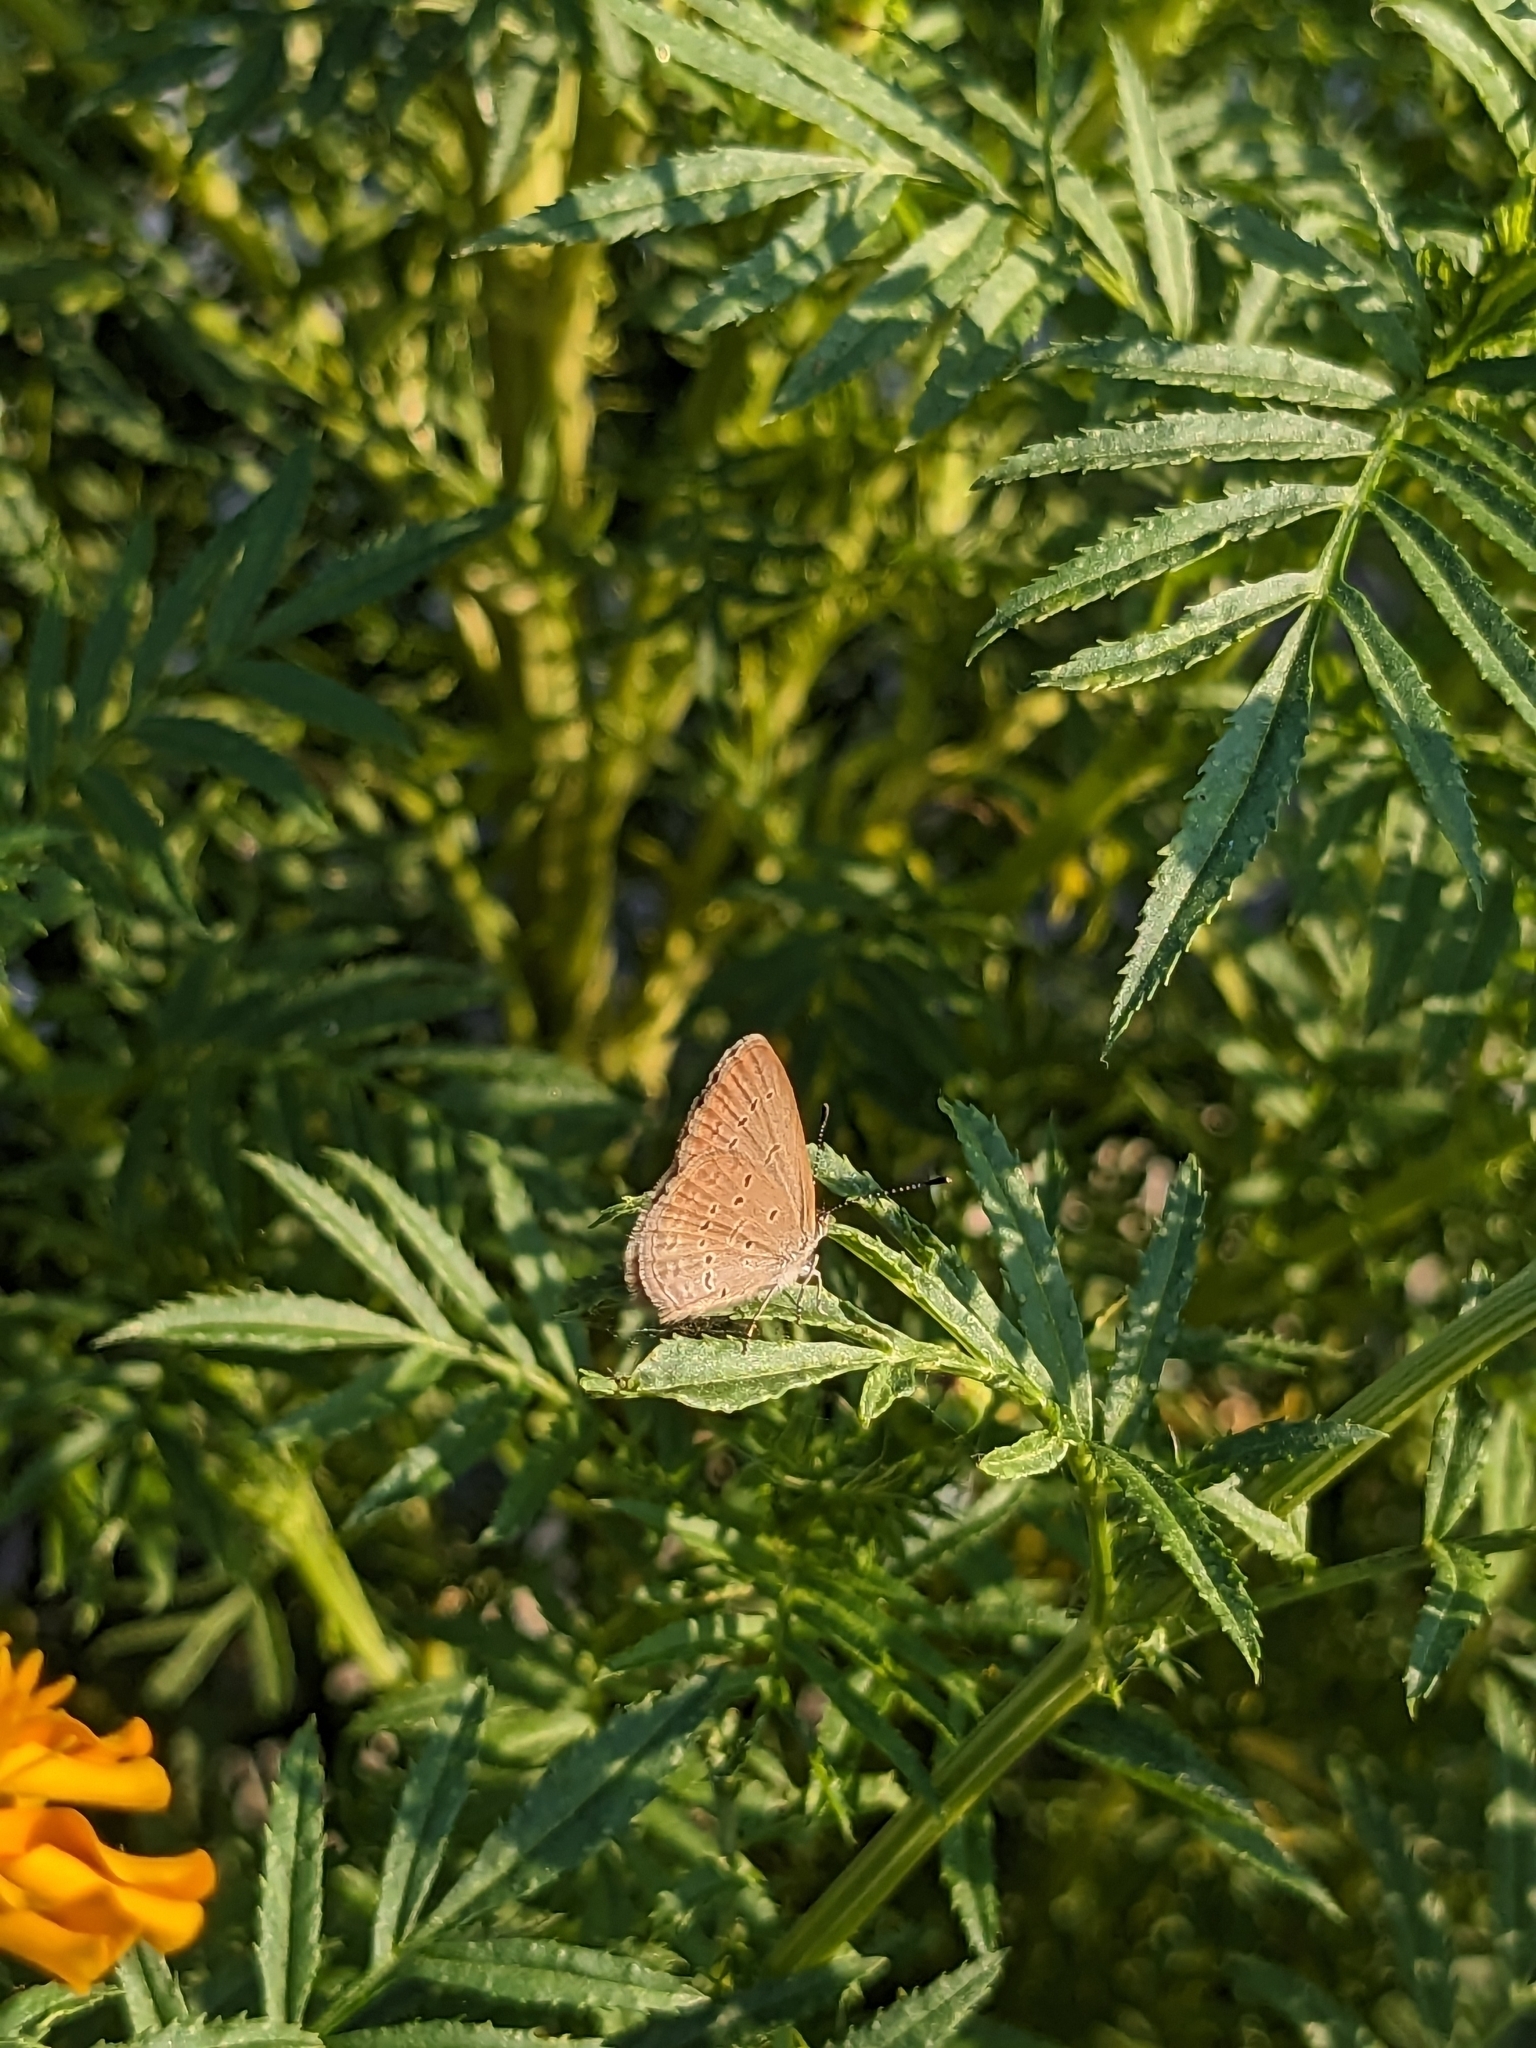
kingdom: Animalia
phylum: Arthropoda
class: Insecta
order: Lepidoptera
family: Lycaenidae
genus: Zizina
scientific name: Zizina otis
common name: Lesser grass blue
